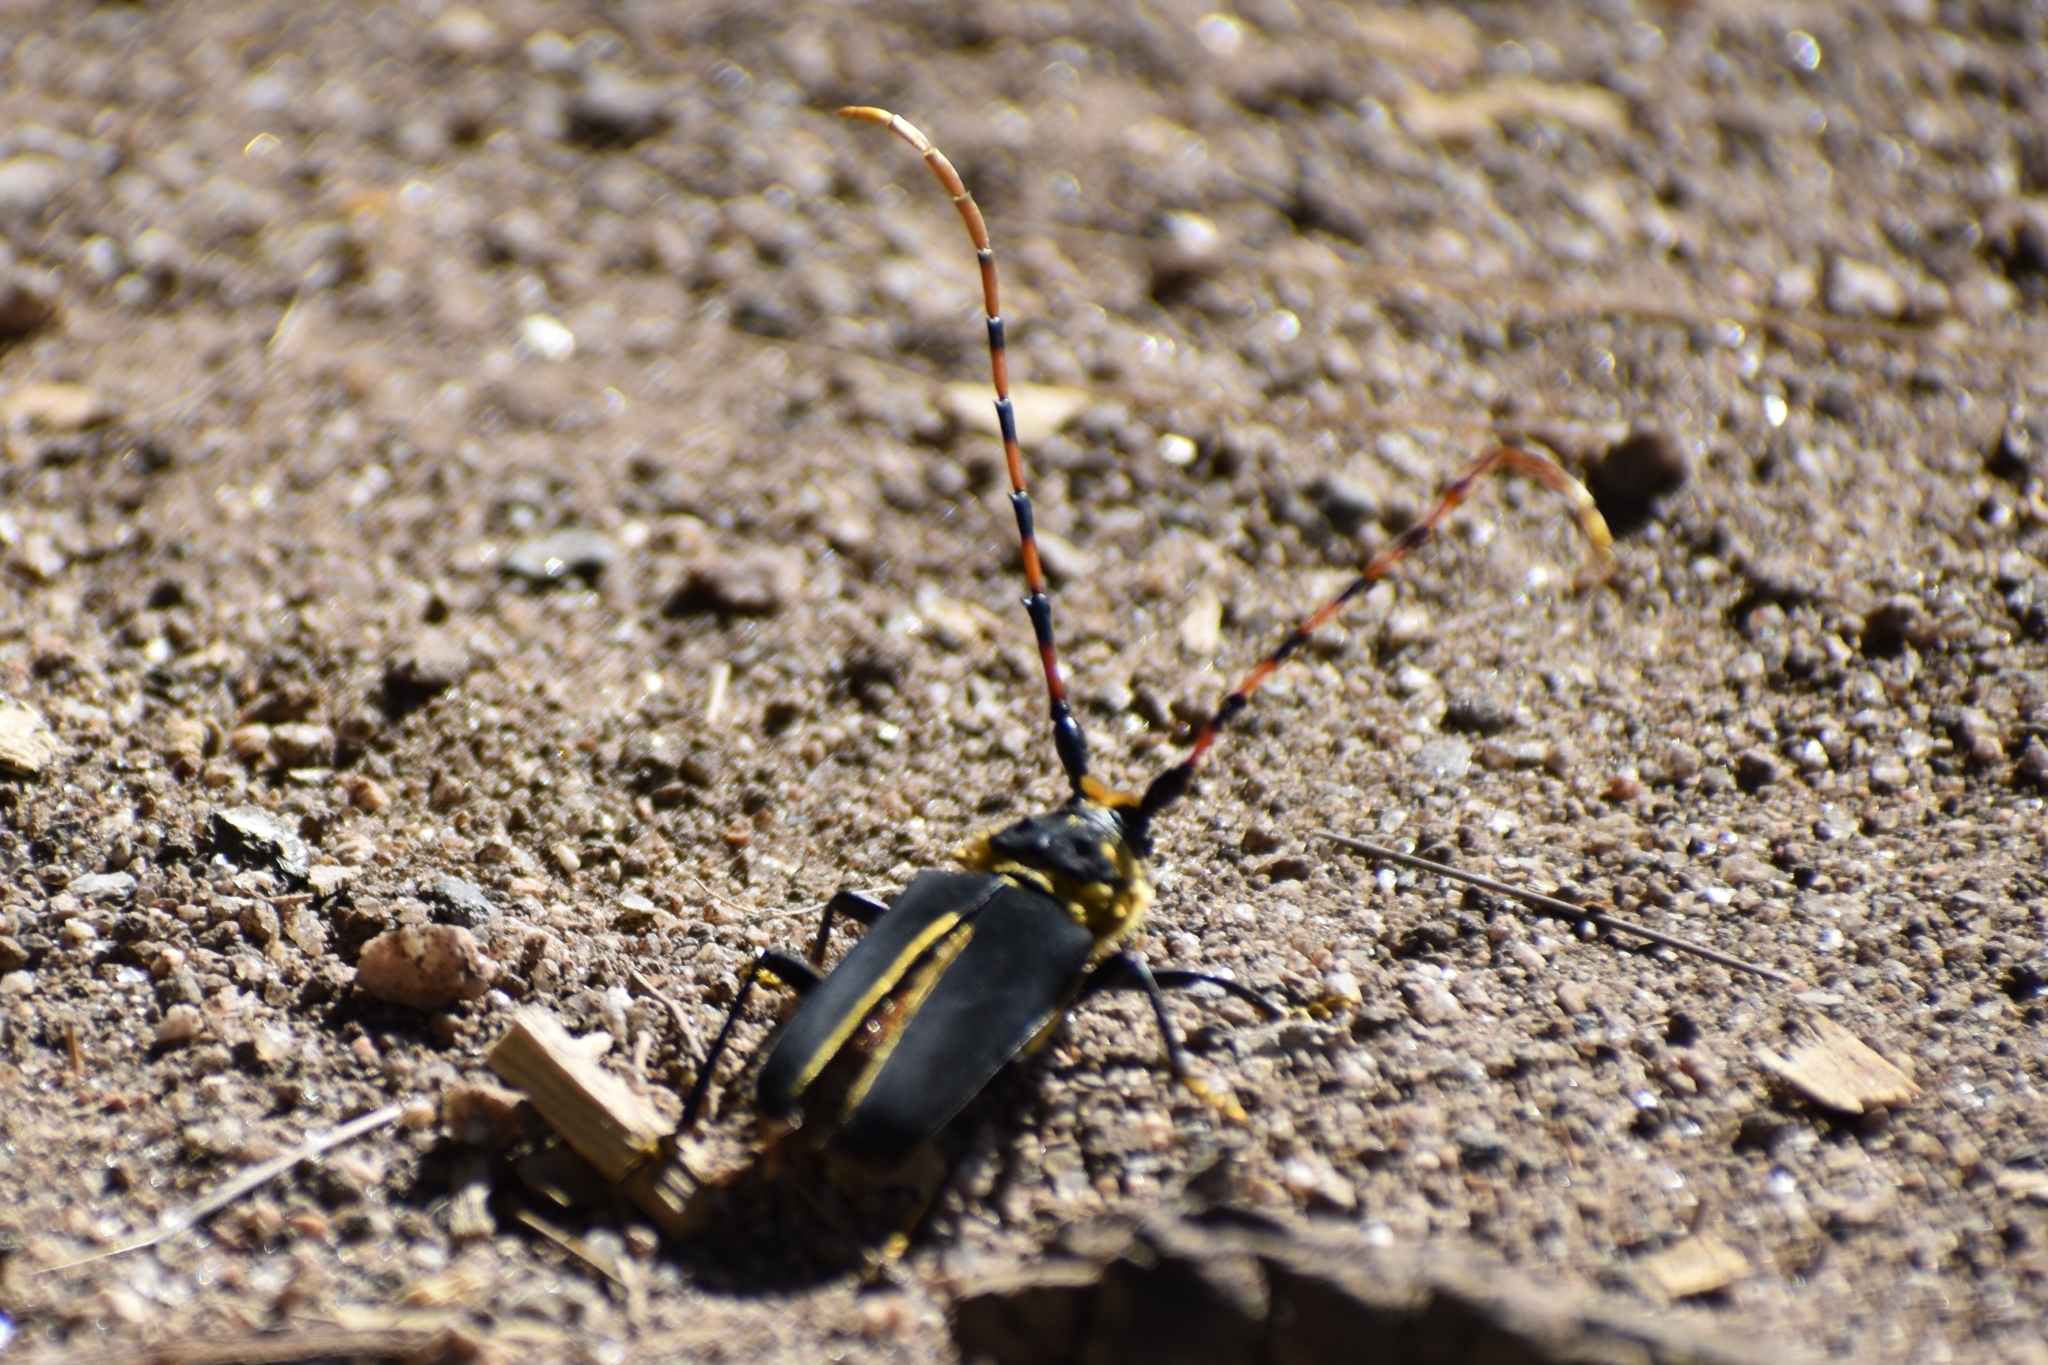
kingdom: Animalia
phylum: Arthropoda
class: Insecta
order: Coleoptera
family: Cerambycidae
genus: Dorcacerus
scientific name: Dorcacerus barbatus
